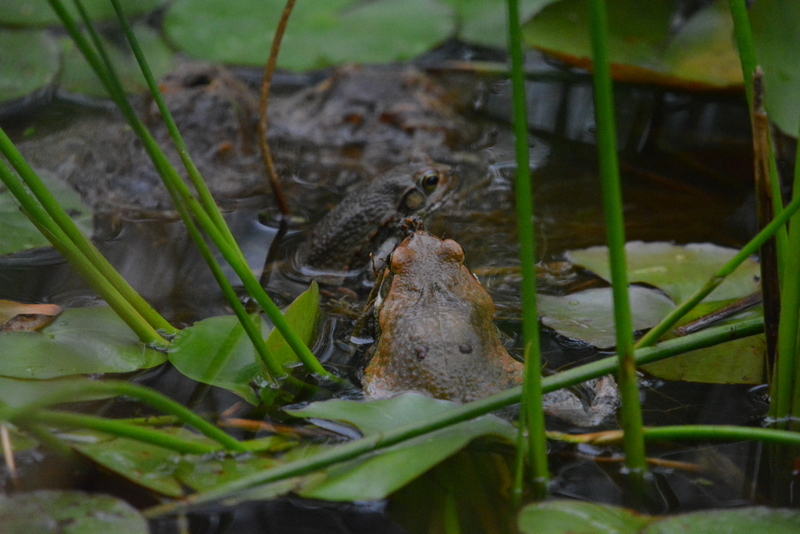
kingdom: Animalia
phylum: Chordata
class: Amphibia
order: Anura
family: Bufonidae
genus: Schismaderma
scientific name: Schismaderma carens
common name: African split-skin toad
